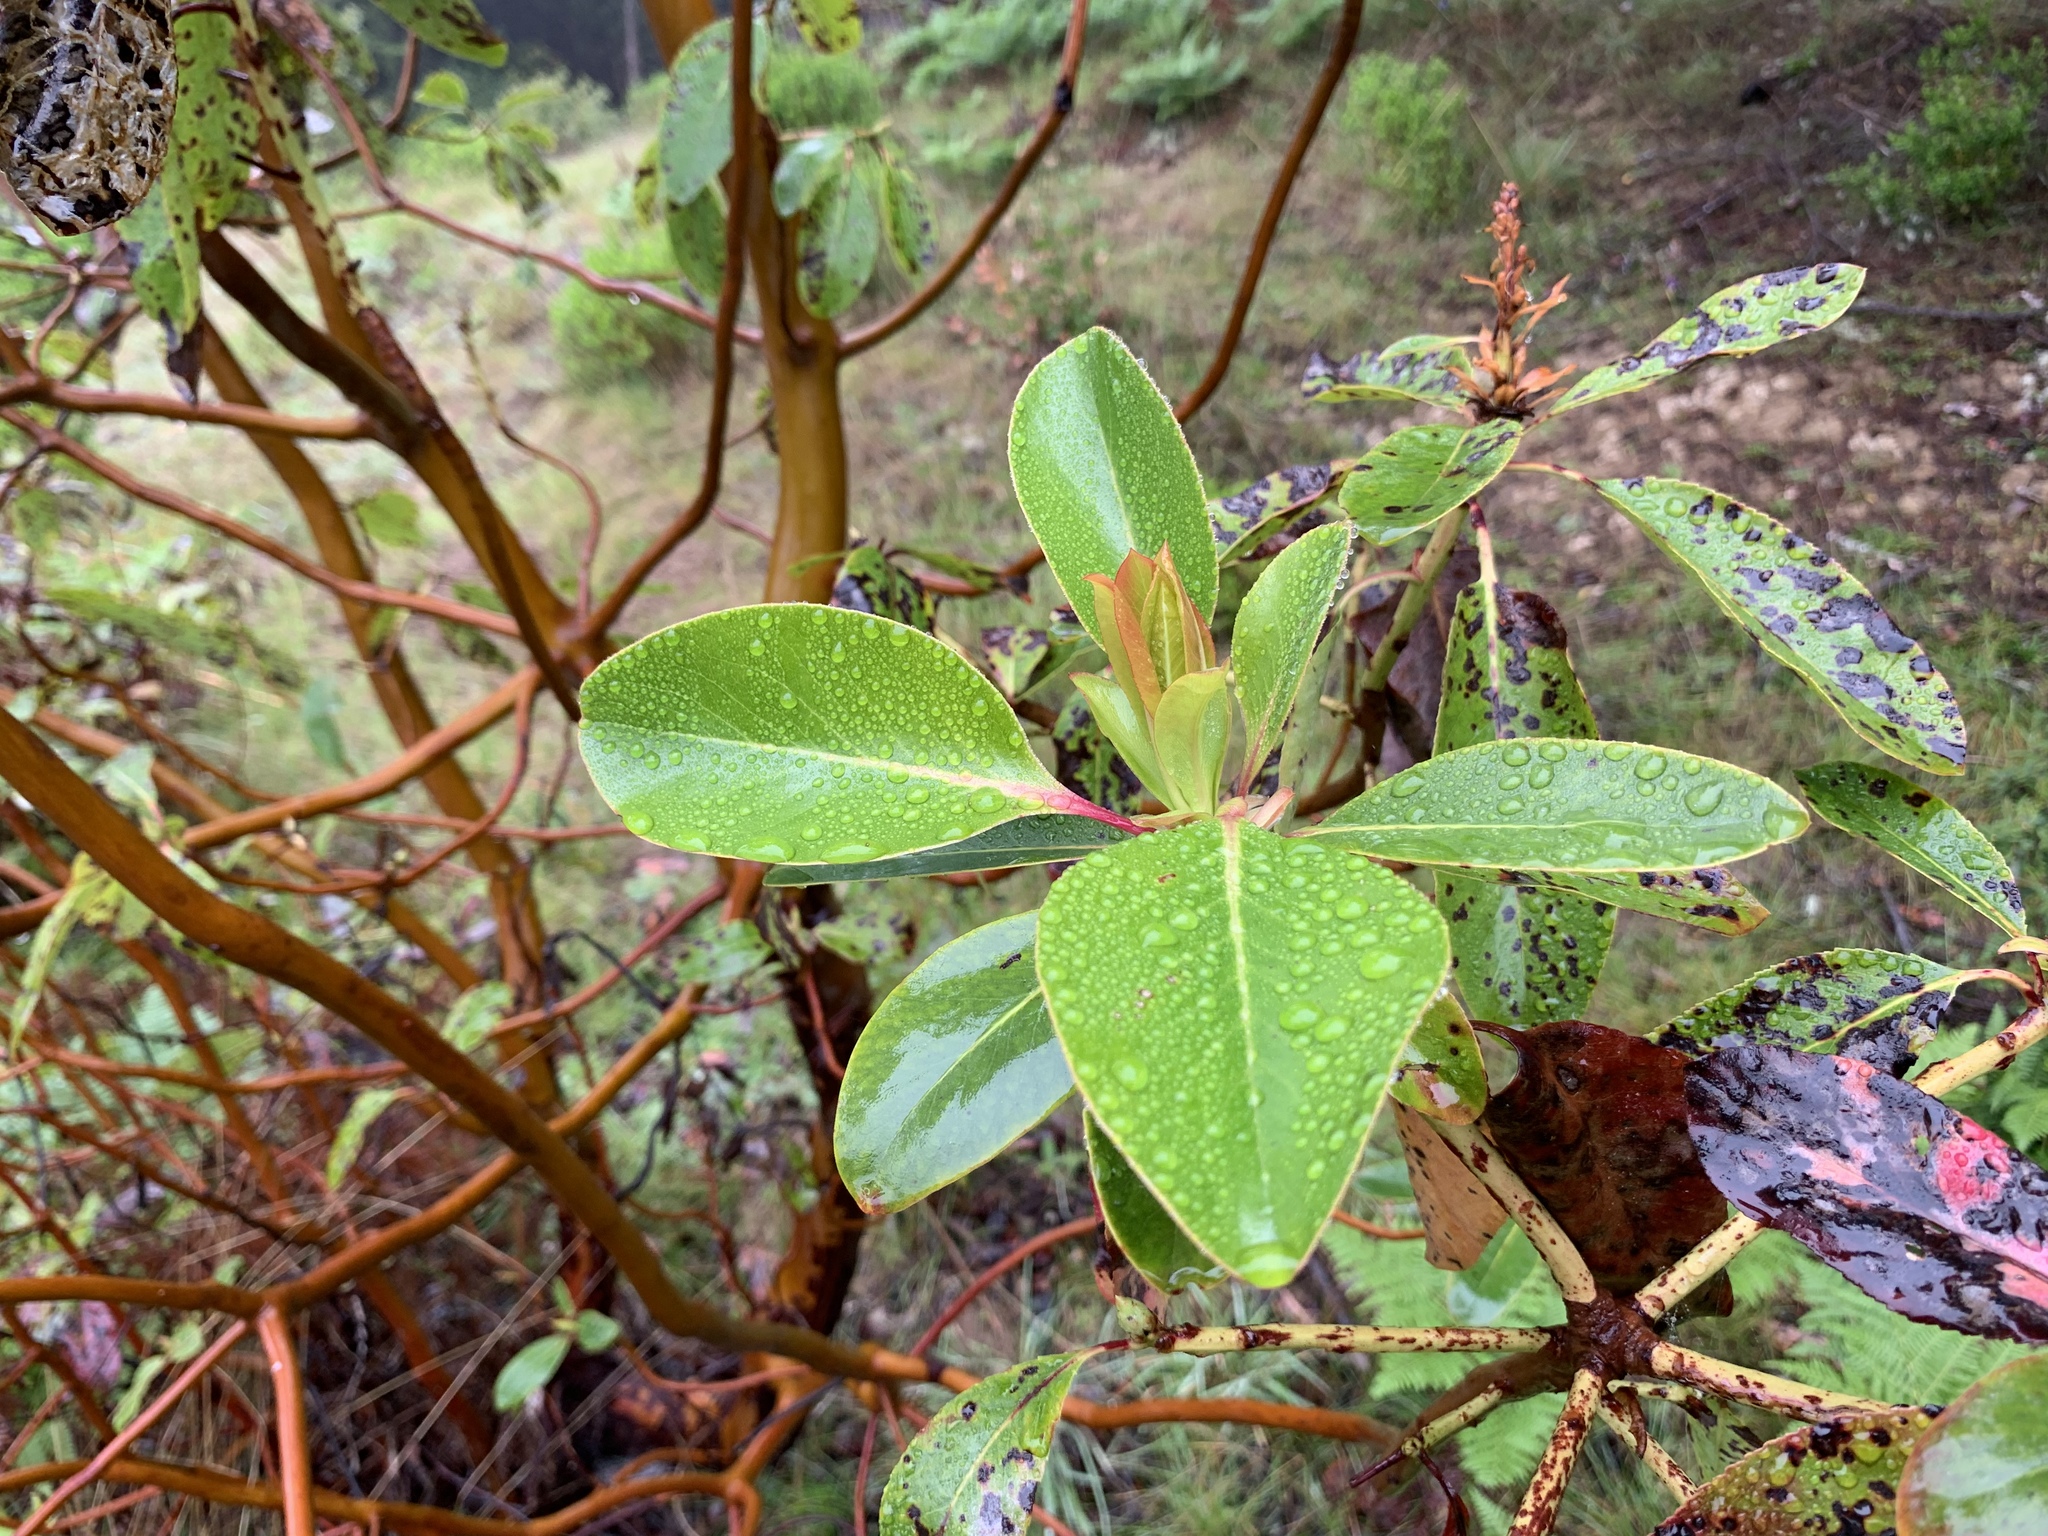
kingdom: Plantae
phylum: Tracheophyta
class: Magnoliopsida
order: Ericales
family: Ericaceae
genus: Arbutus
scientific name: Arbutus menziesii
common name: Pacific madrone
